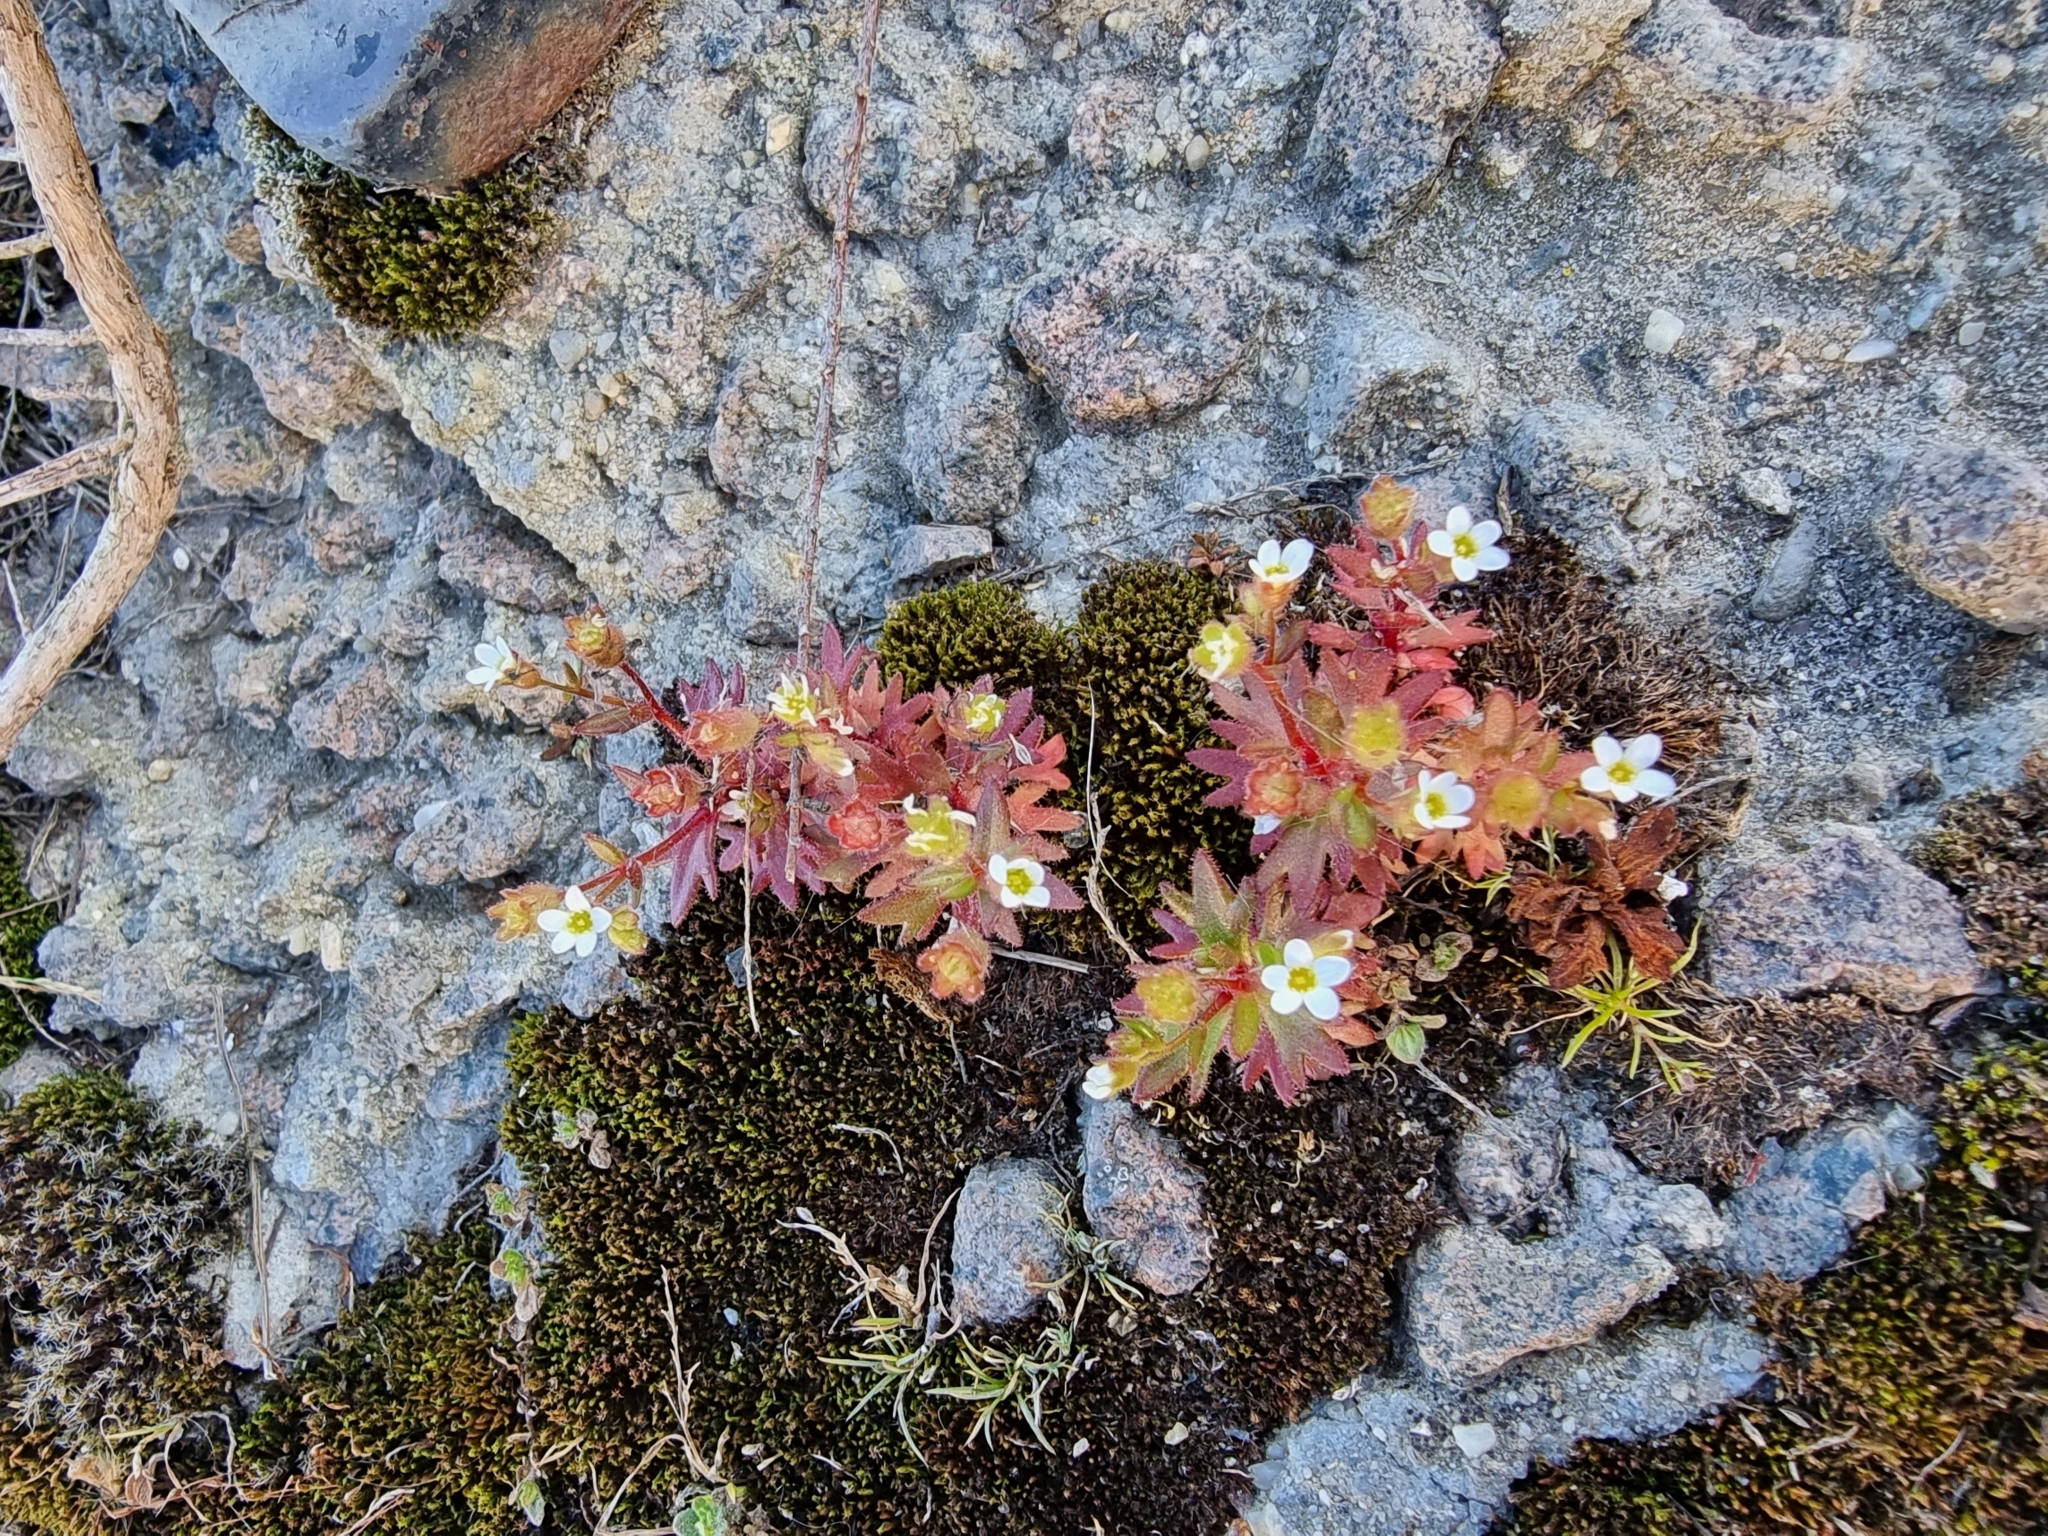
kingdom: Plantae
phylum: Tracheophyta
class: Magnoliopsida
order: Saxifragales
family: Saxifragaceae
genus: Saxifraga
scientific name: Saxifraga tridactylites
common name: Rue-leaved saxifrage
